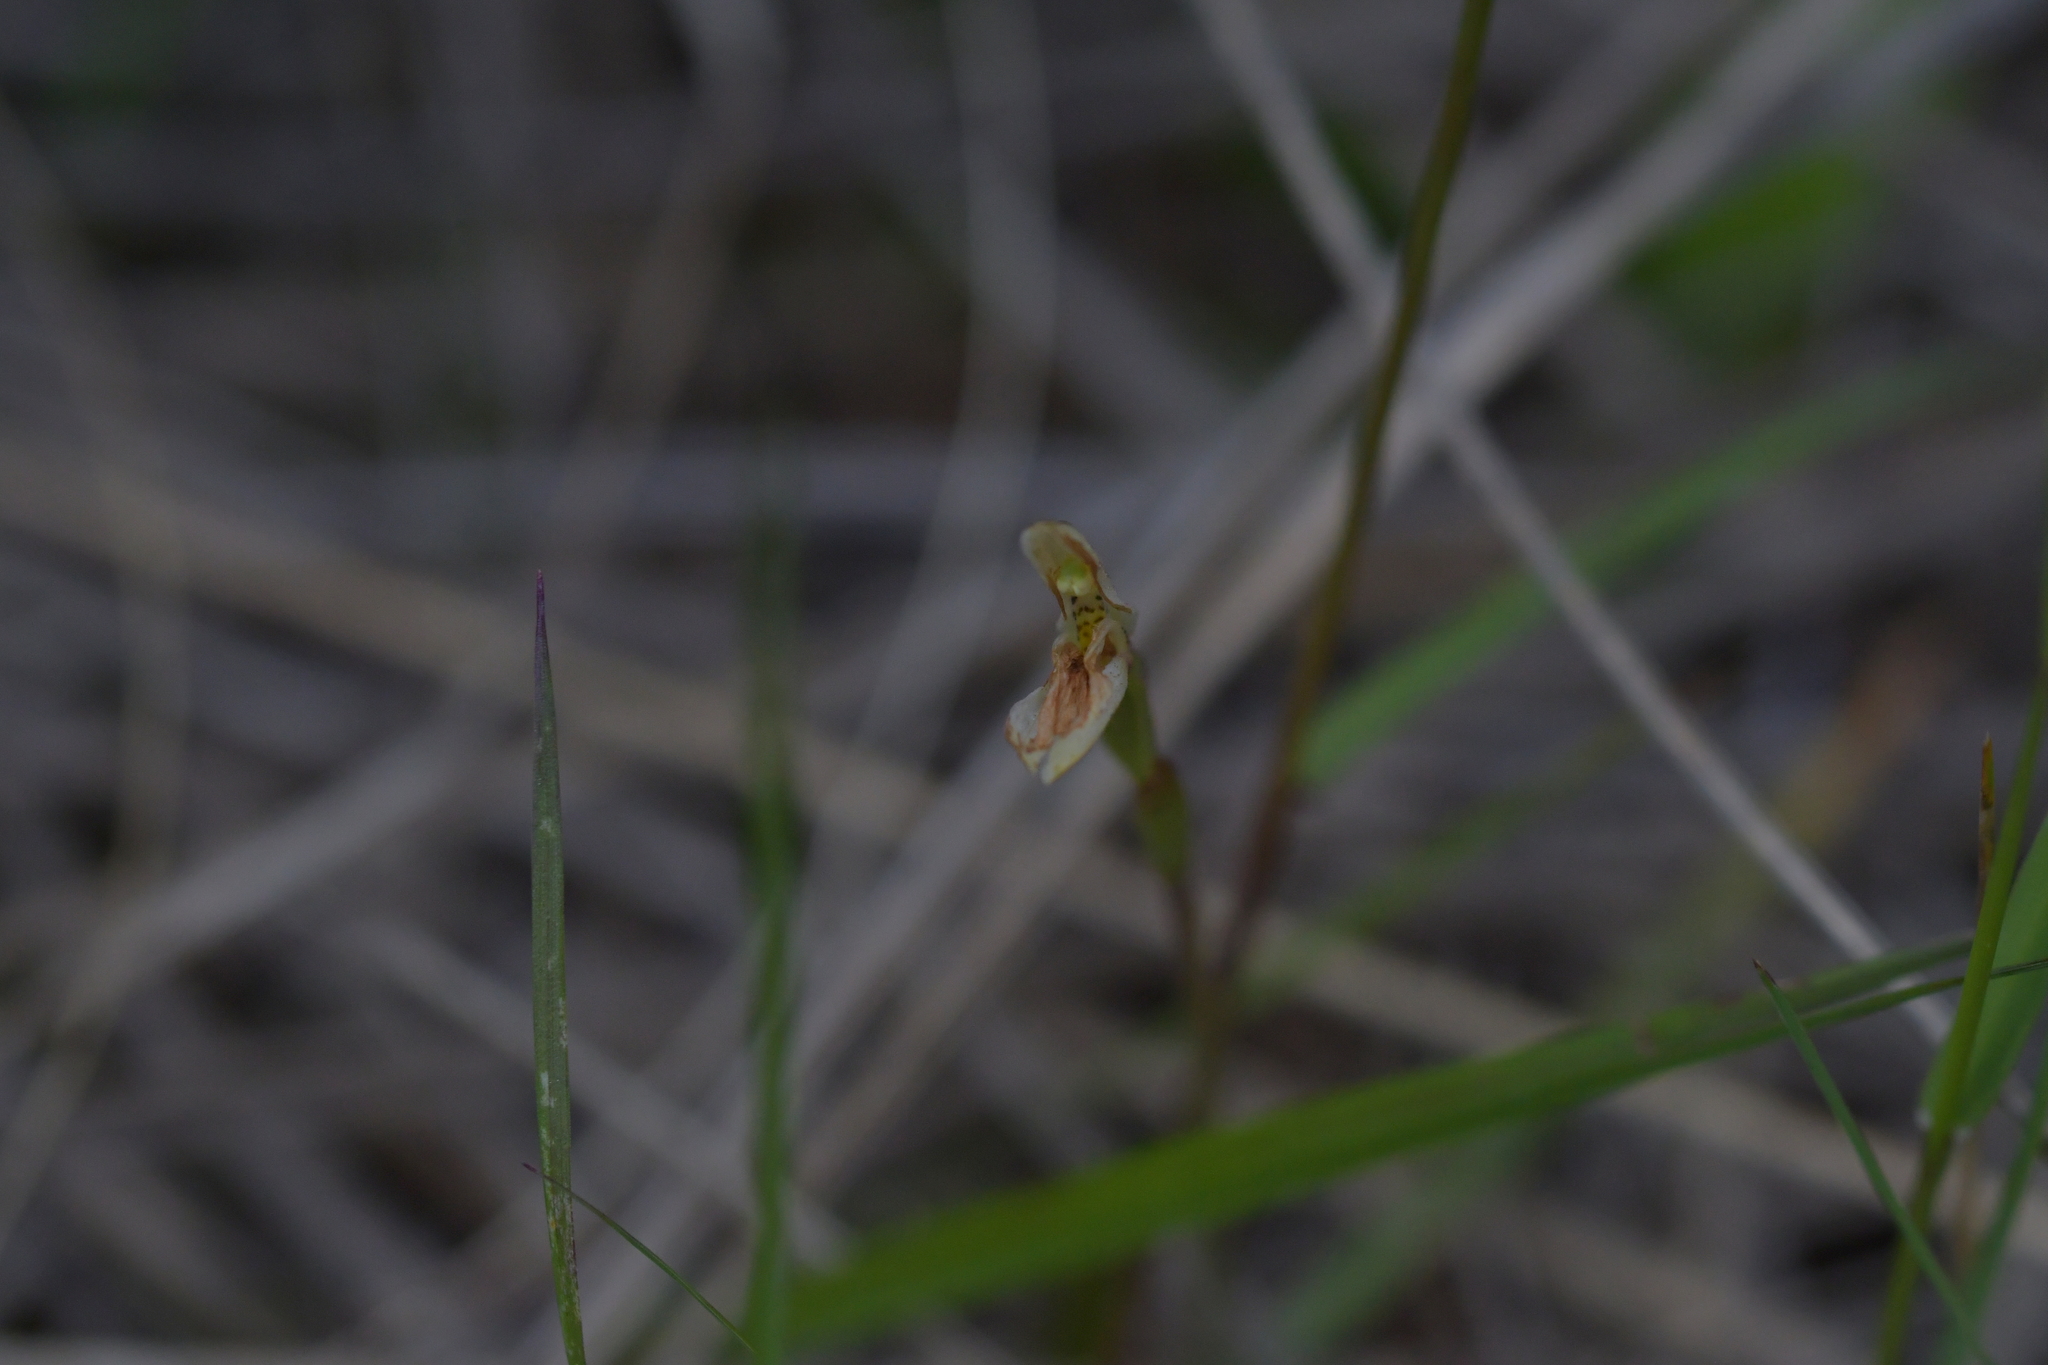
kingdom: Plantae
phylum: Tracheophyta
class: Liliopsida
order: Asparagales
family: Orchidaceae
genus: Aporostylis
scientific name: Aporostylis bifolia
